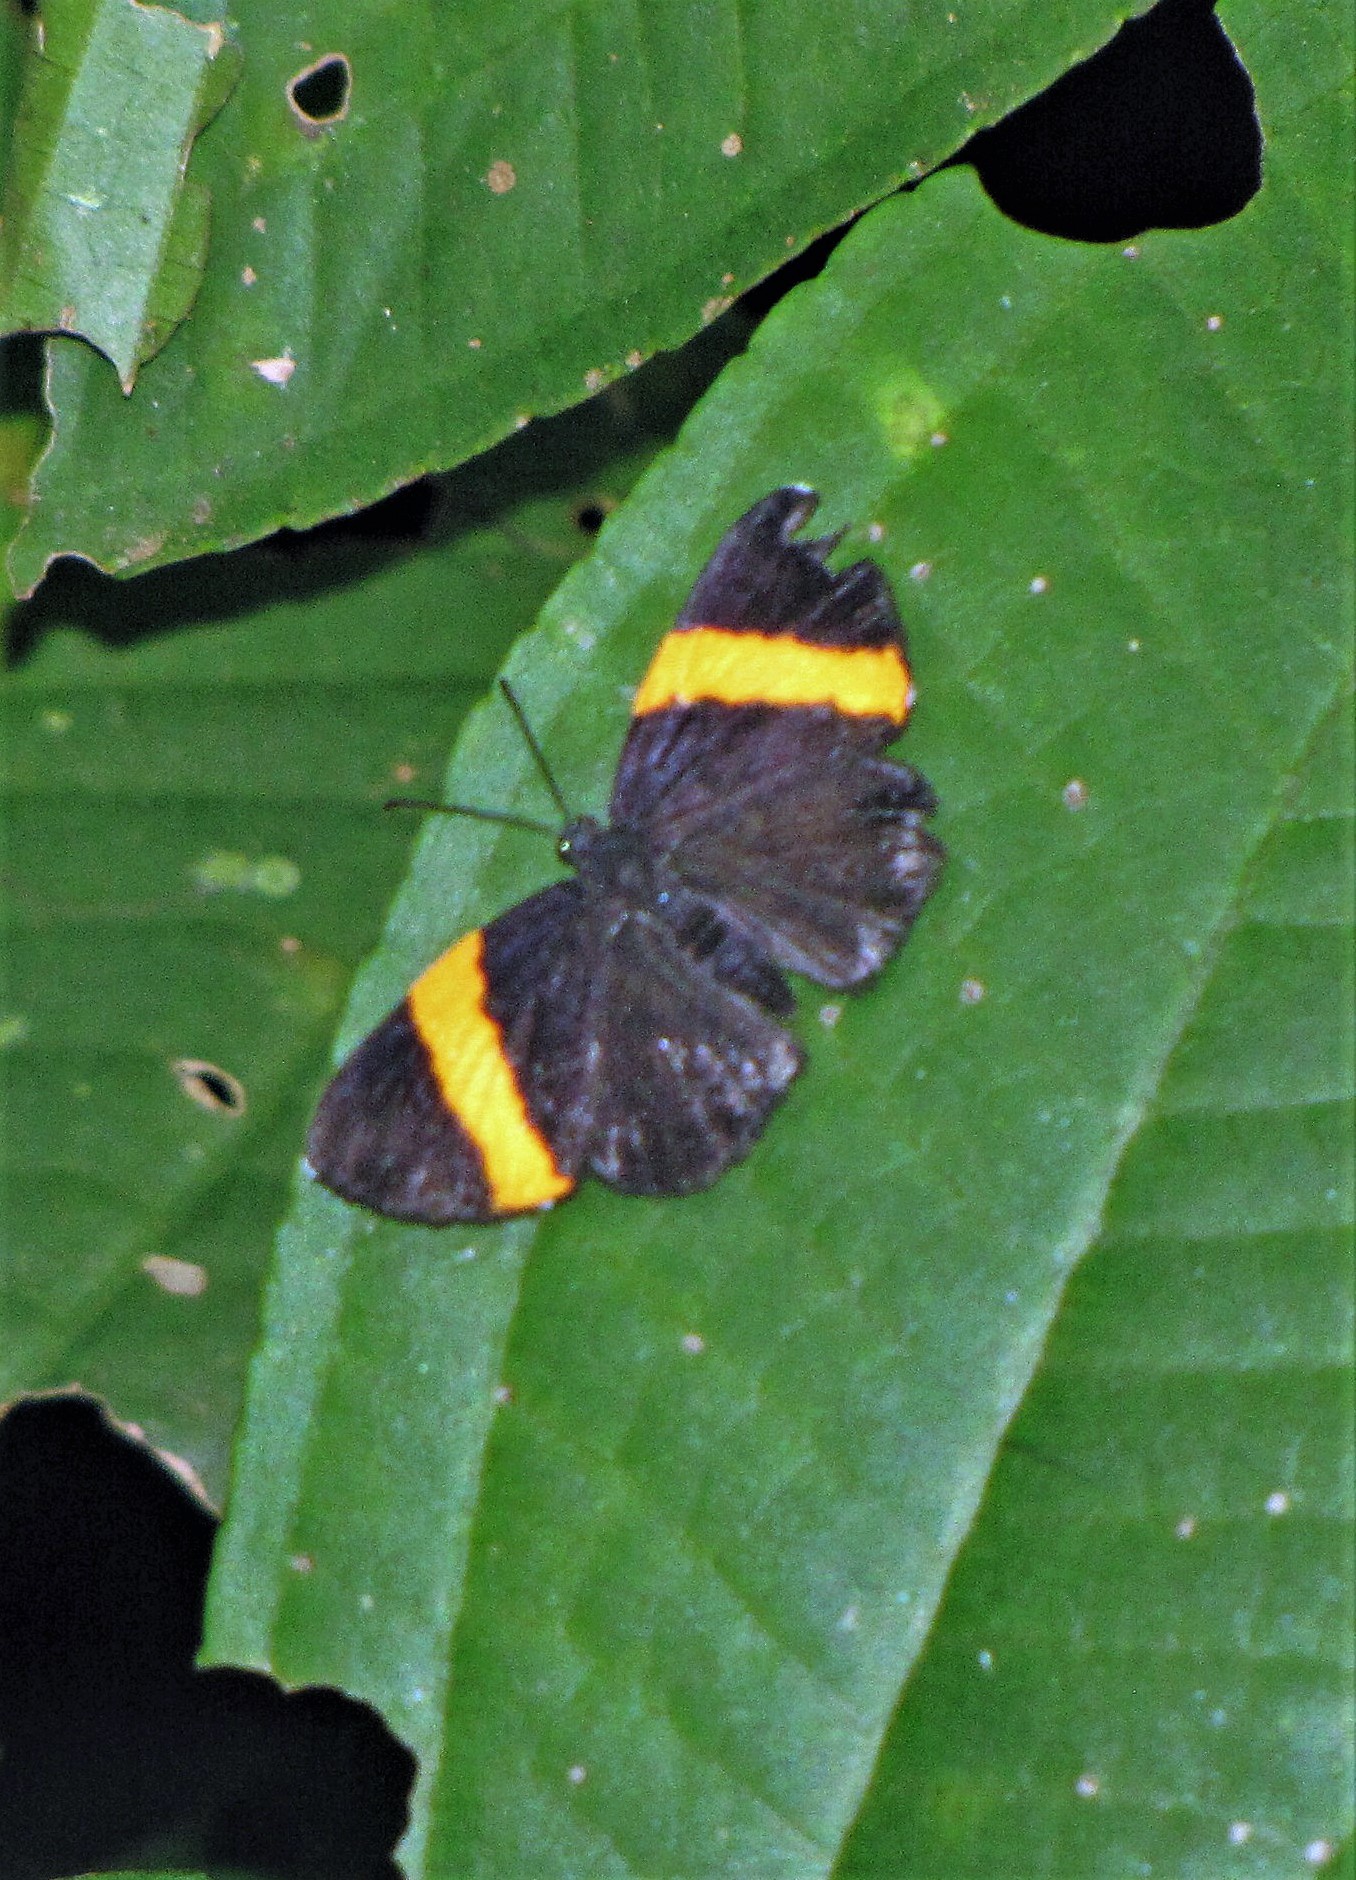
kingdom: Animalia
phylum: Arthropoda
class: Insecta
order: Lepidoptera
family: Riodinidae
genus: Pirascca
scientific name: Pirascca sagaris
